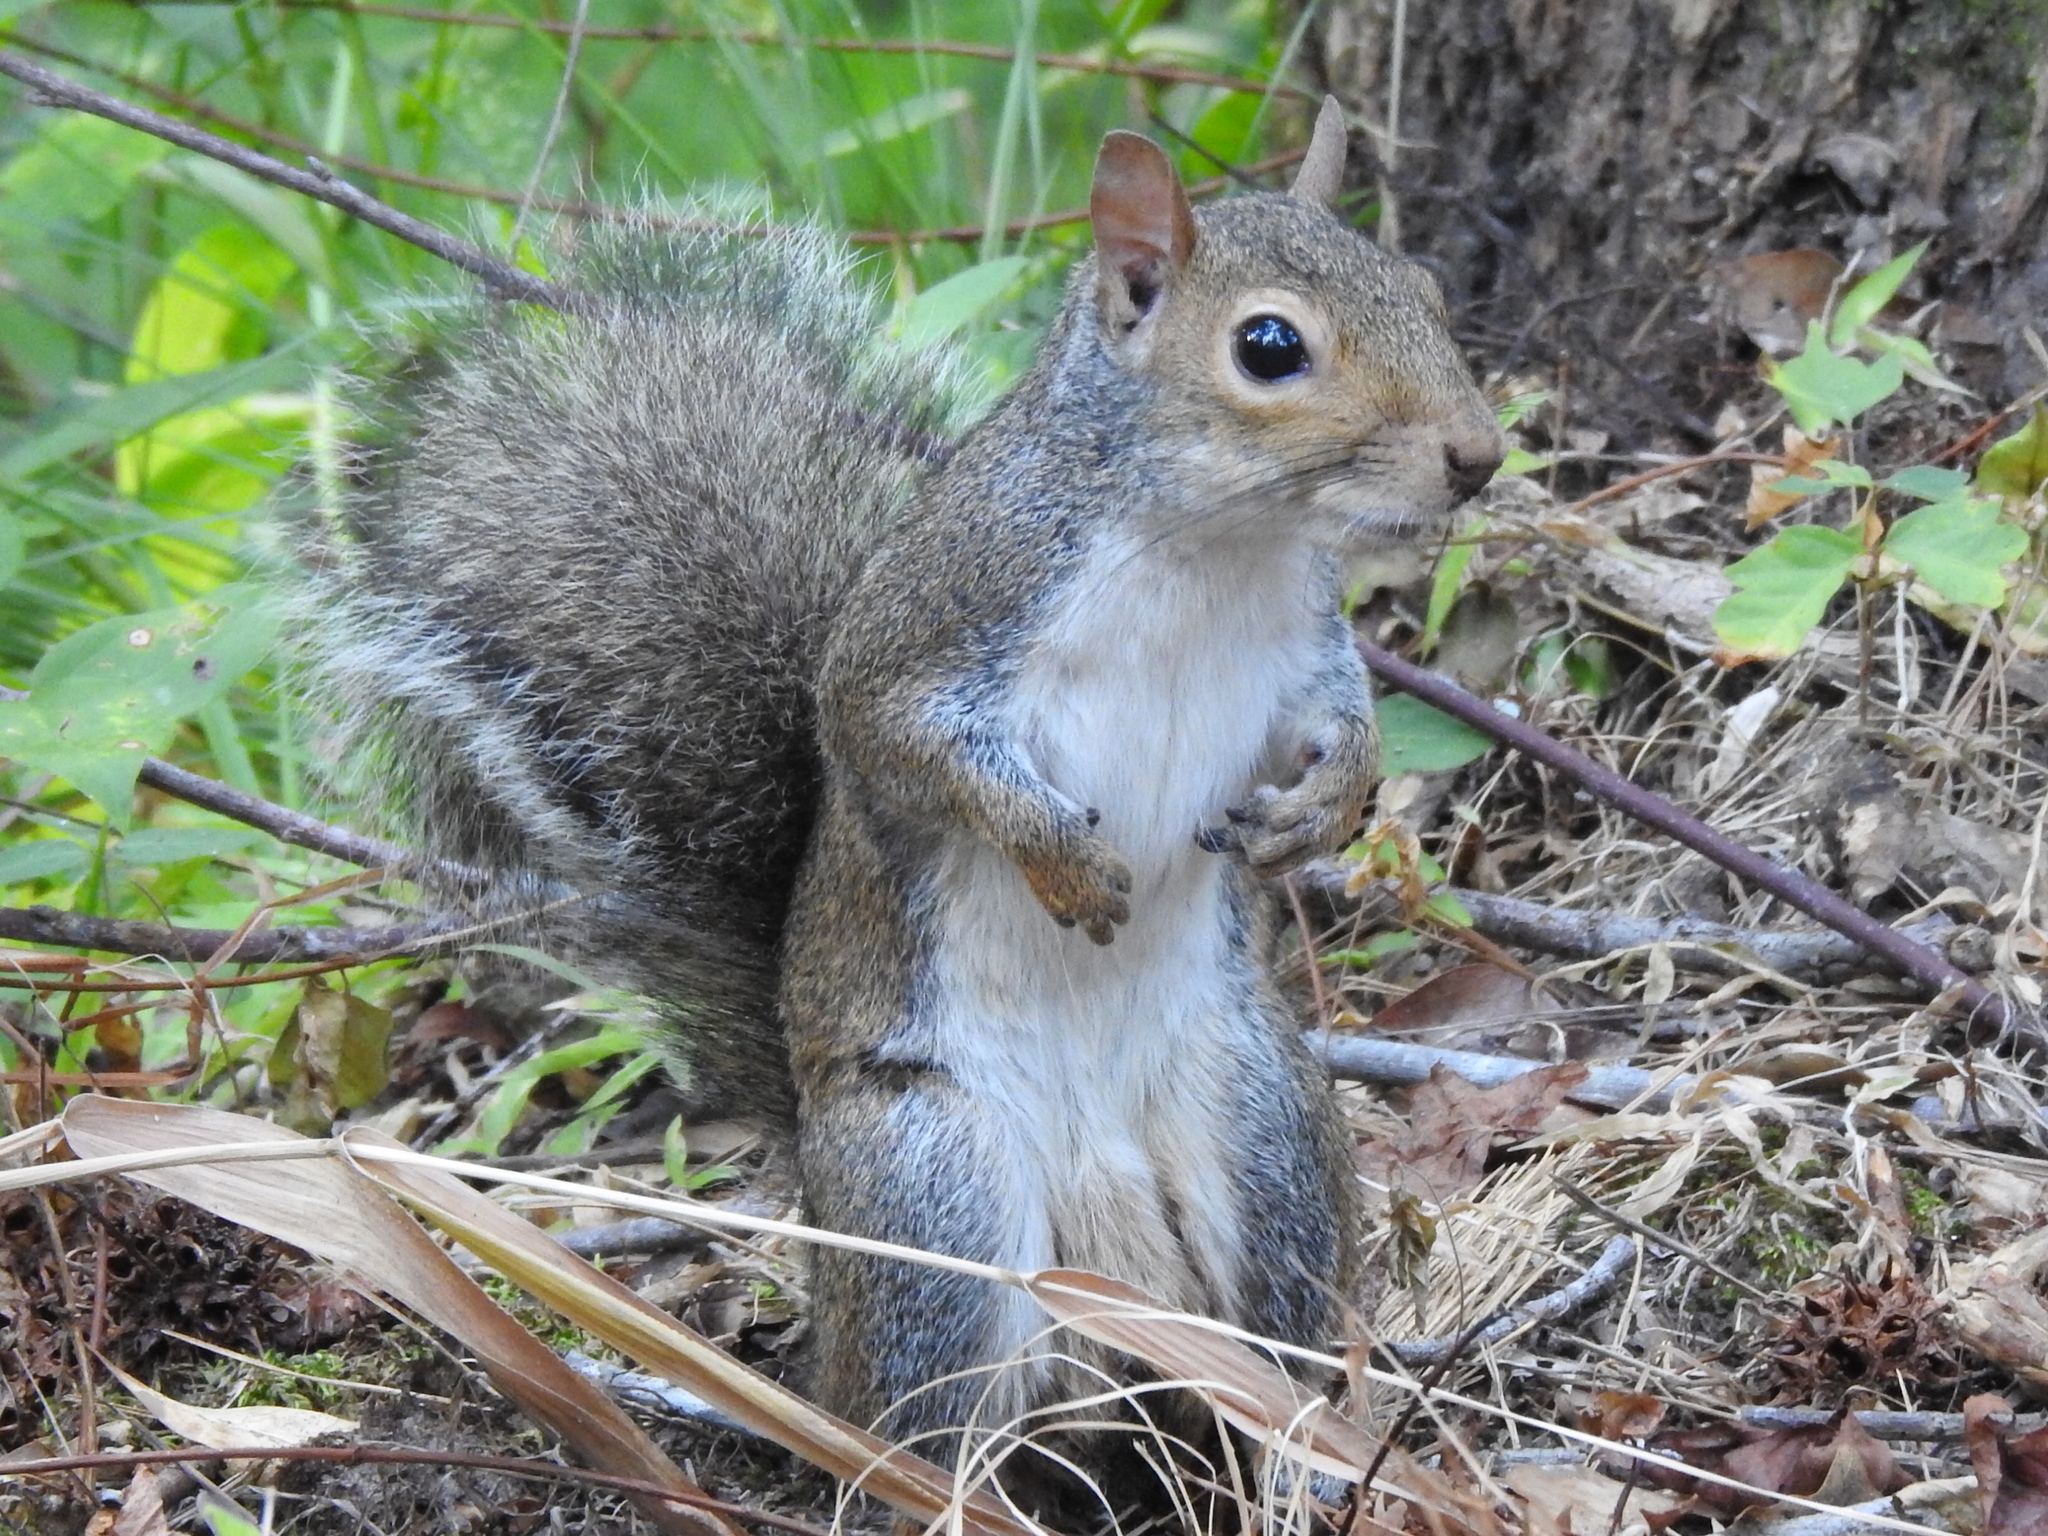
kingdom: Animalia
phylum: Chordata
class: Mammalia
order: Rodentia
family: Sciuridae
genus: Sciurus
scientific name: Sciurus carolinensis
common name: Eastern gray squirrel
